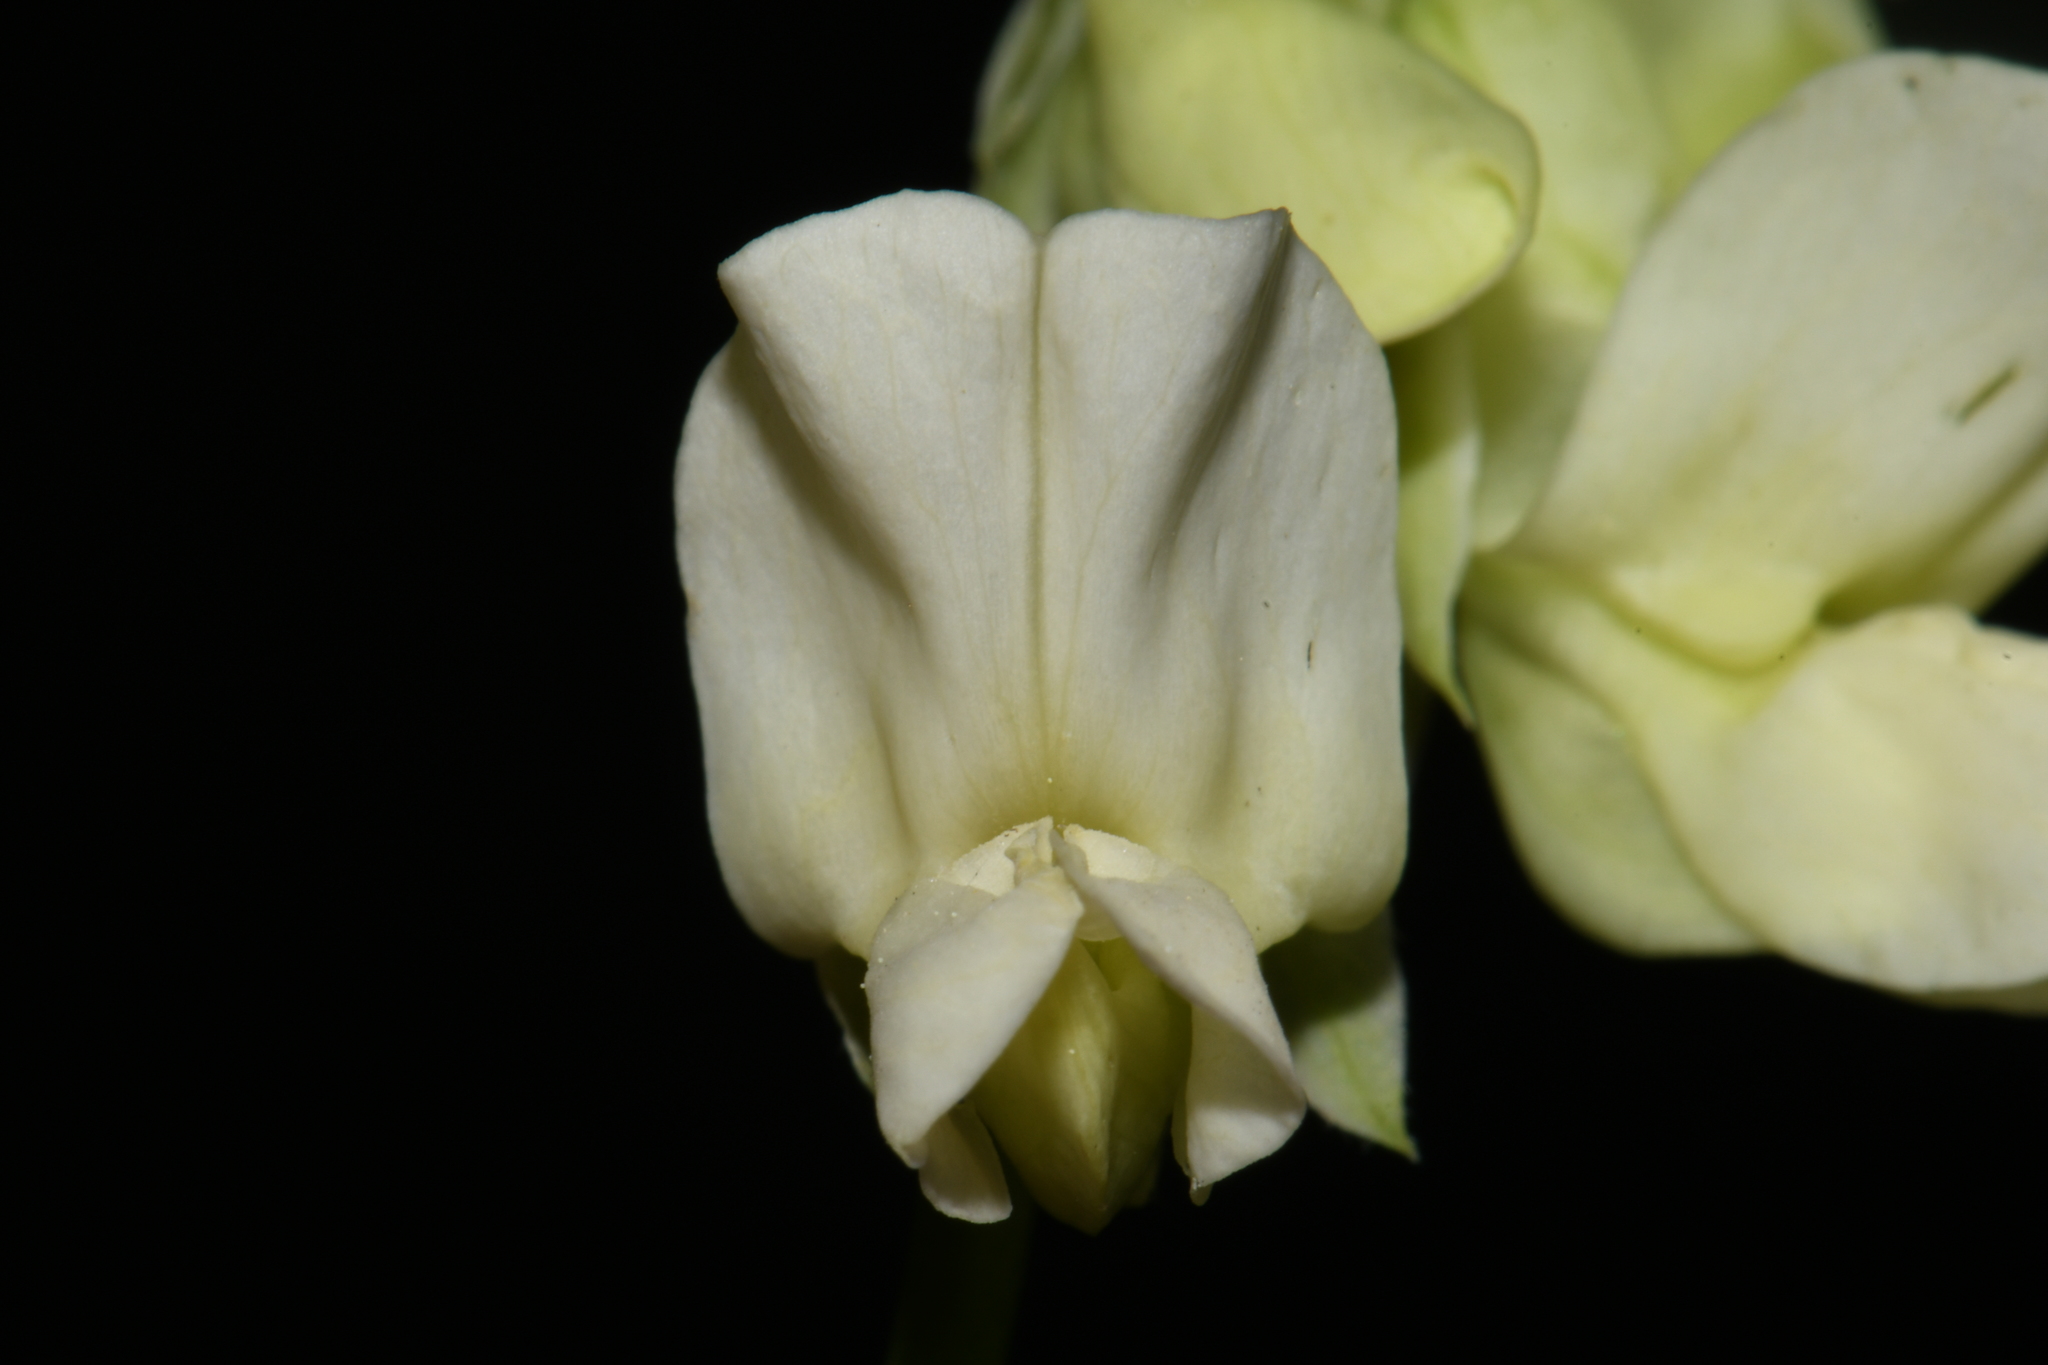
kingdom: Plantae
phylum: Tracheophyta
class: Magnoliopsida
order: Fabales
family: Fabaceae
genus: Lathyrus
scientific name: Lathyrus ochroleucus
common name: Pale vetchling
